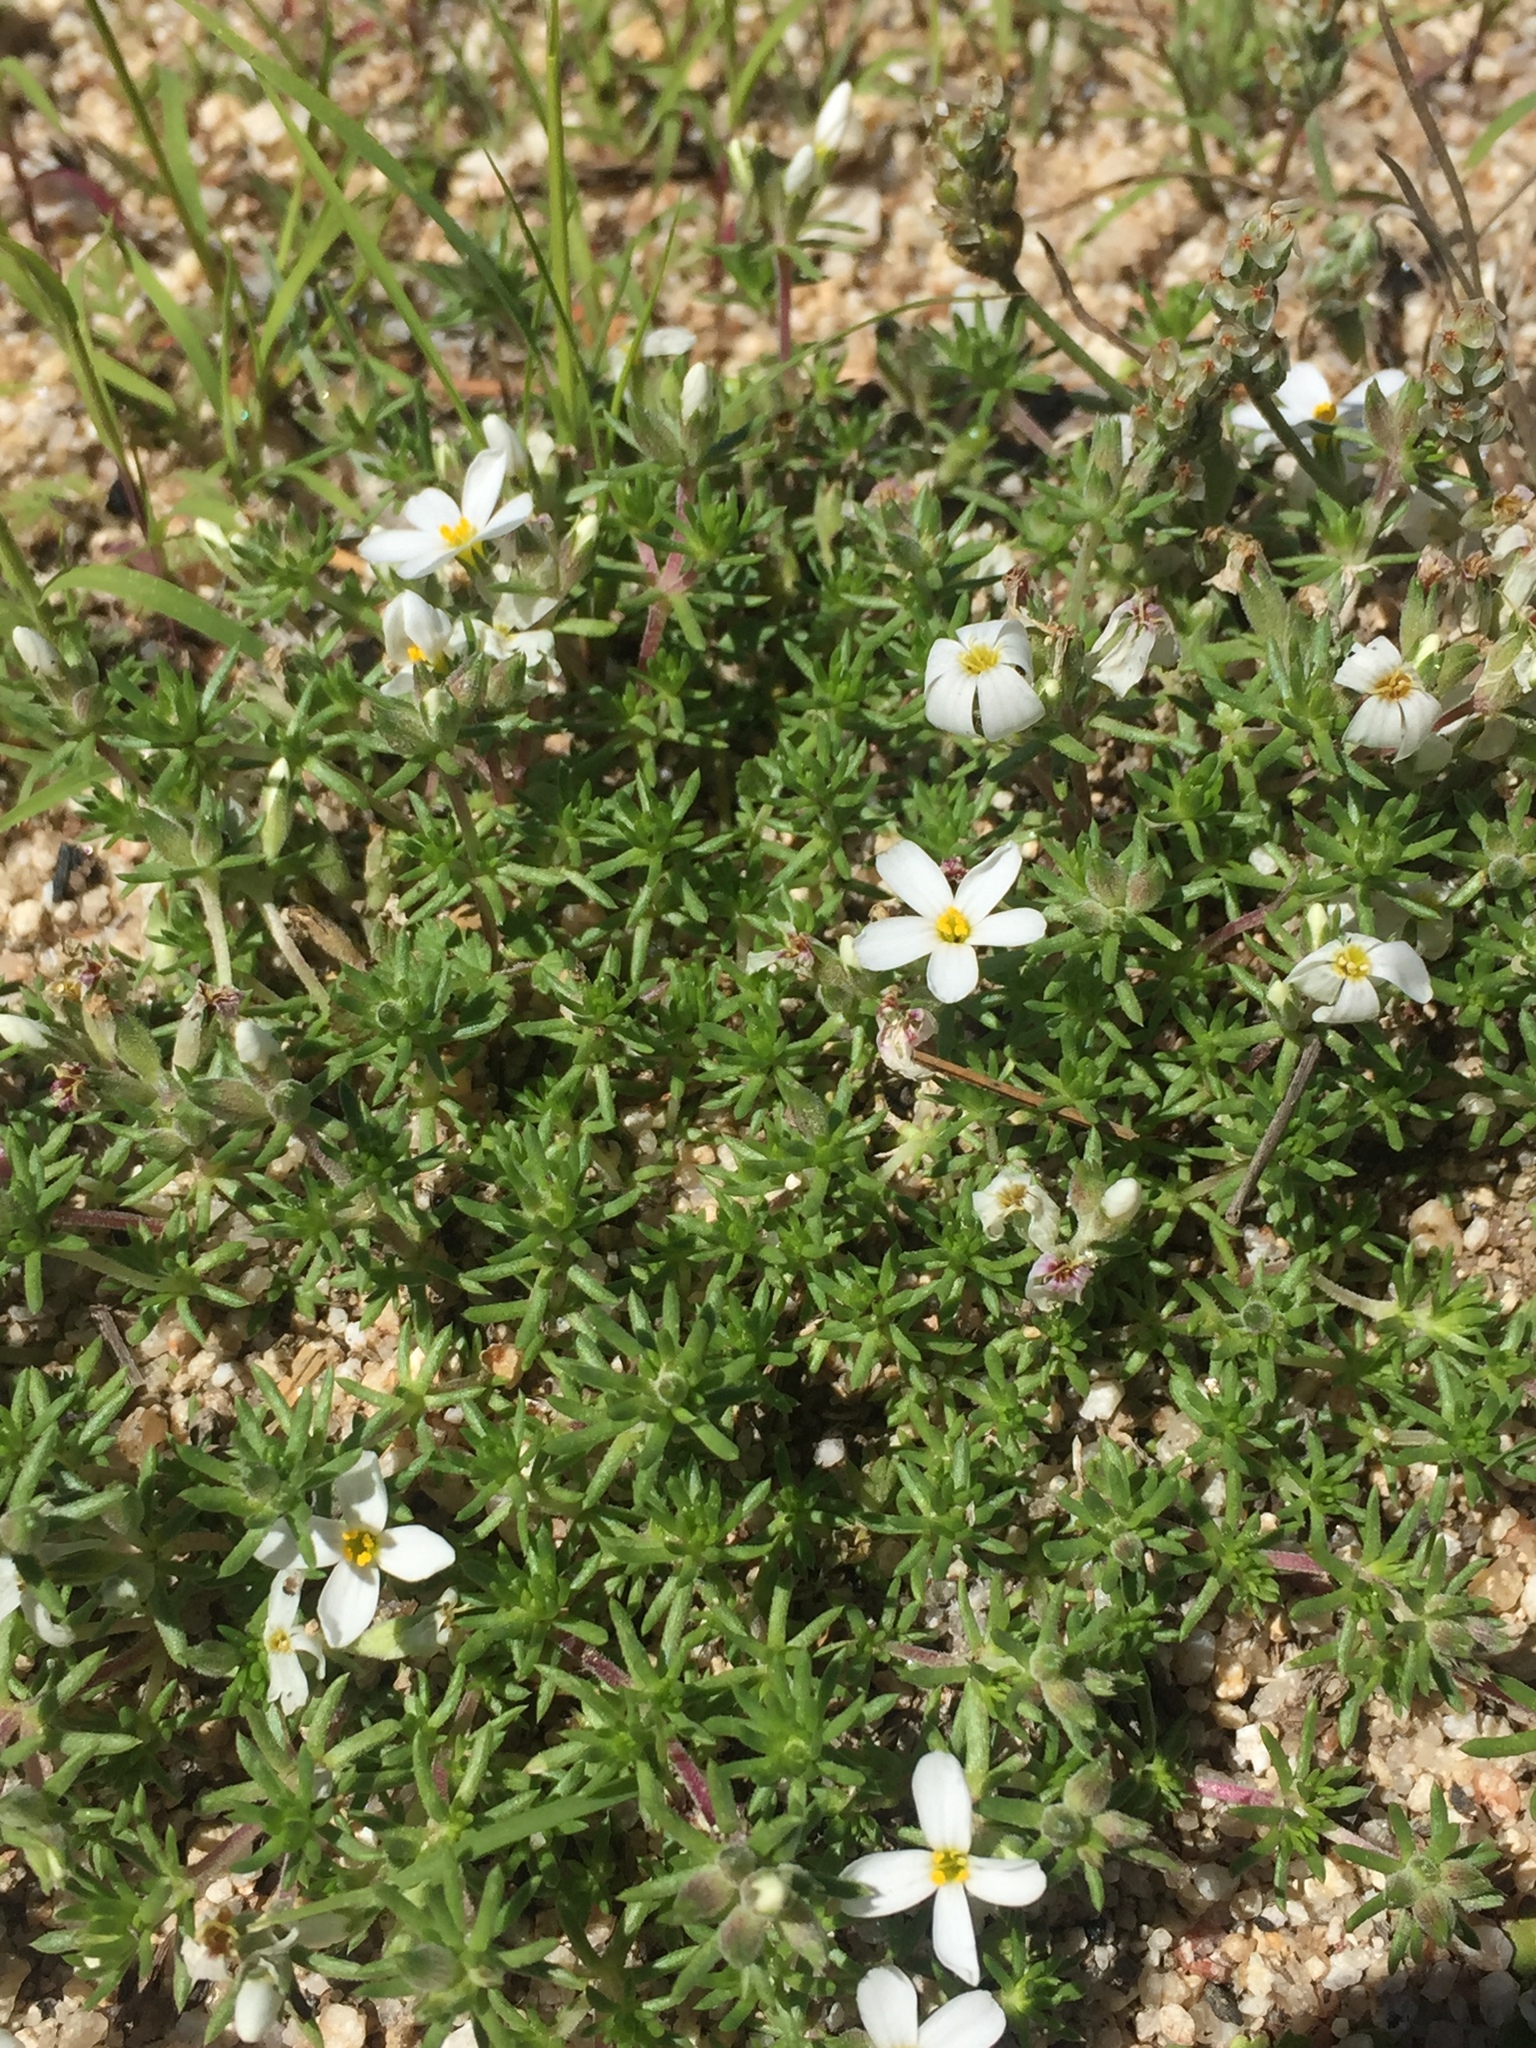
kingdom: Plantae
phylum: Tracheophyta
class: Magnoliopsida
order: Ericales
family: Polemoniaceae
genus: Leptosiphon
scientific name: Leptosiphon melingii
